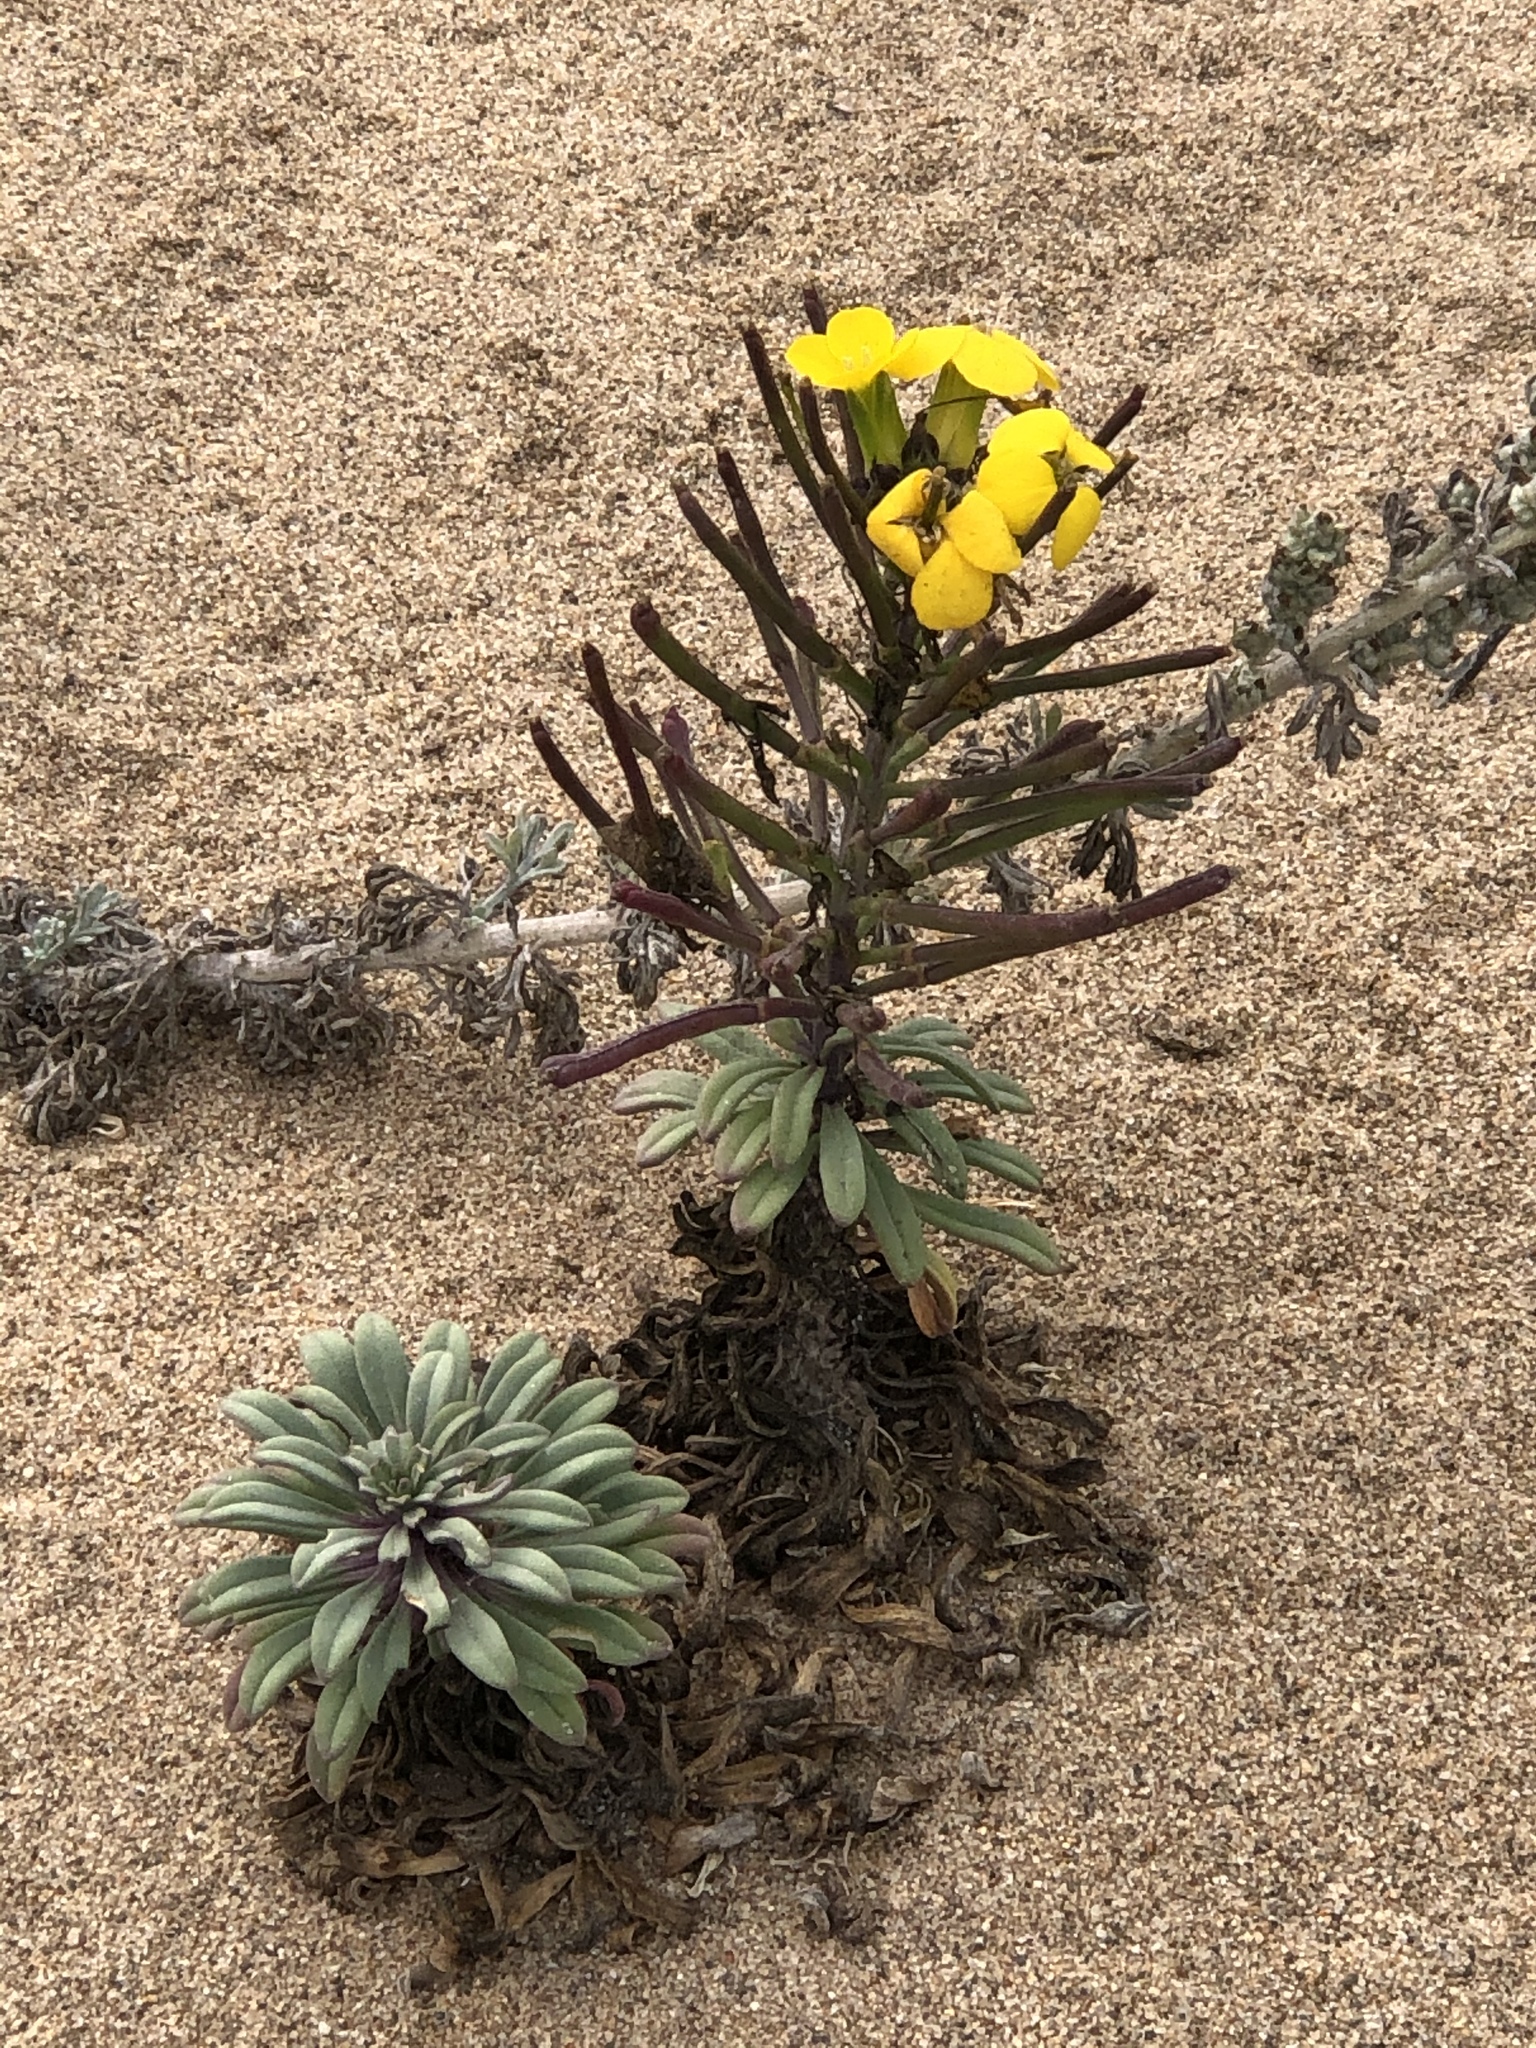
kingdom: Plantae
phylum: Tracheophyta
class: Magnoliopsida
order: Brassicales
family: Brassicaceae
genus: Erysimum
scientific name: Erysimum menziesii
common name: Menzies's wallflower
